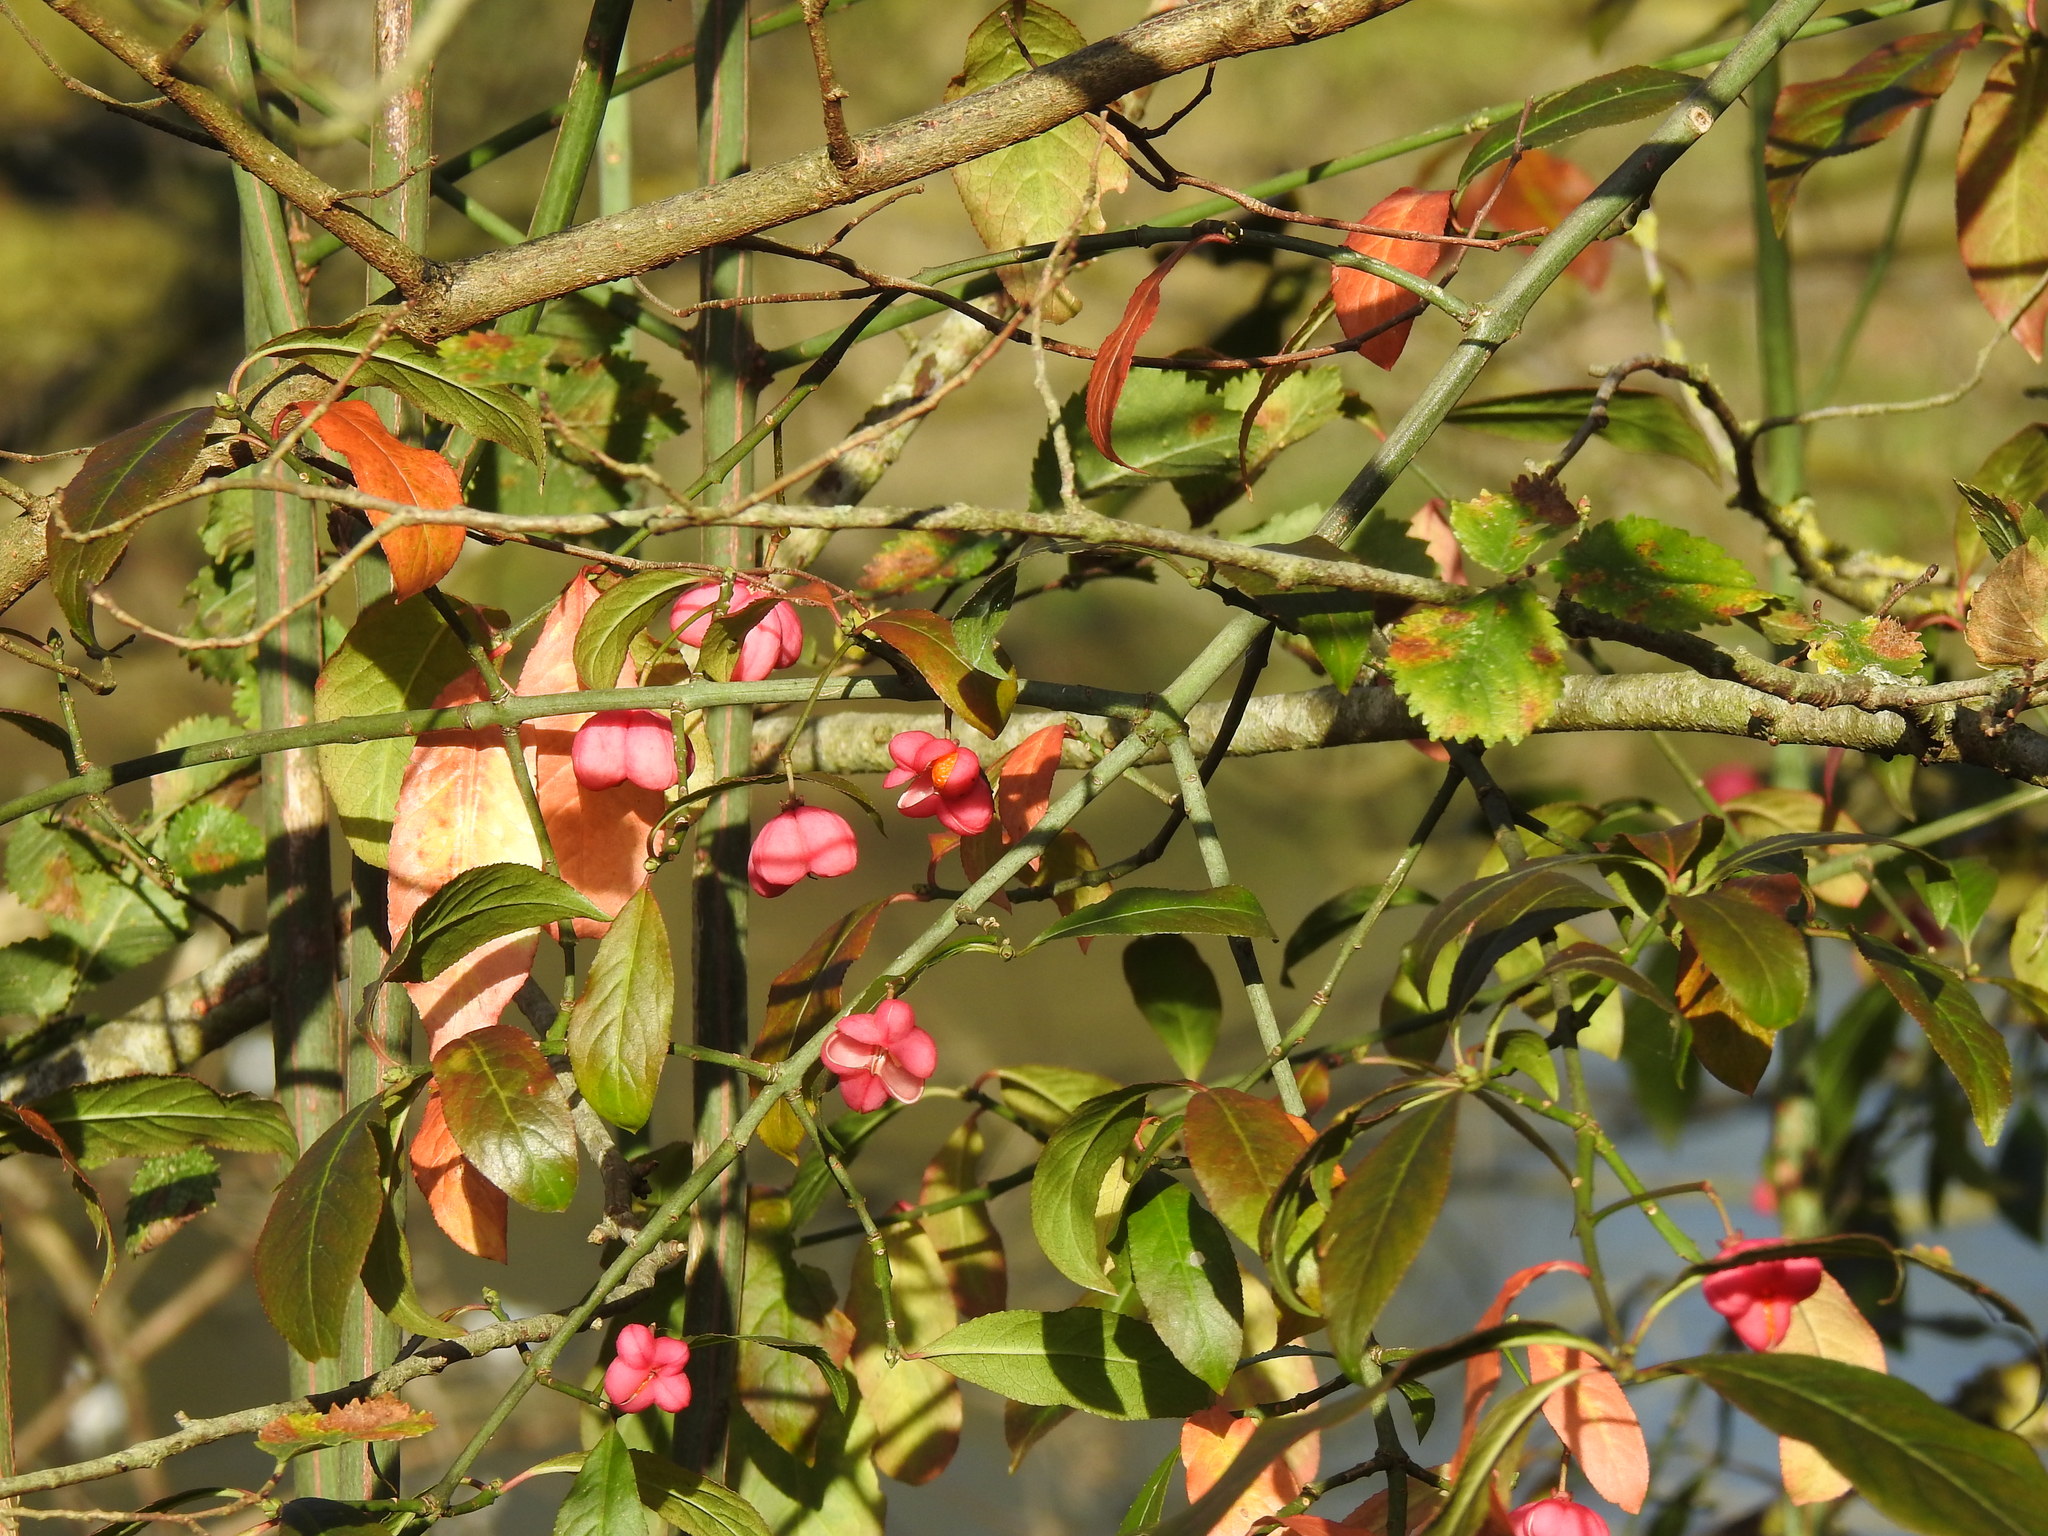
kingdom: Plantae
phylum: Tracheophyta
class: Magnoliopsida
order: Celastrales
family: Celastraceae
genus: Euonymus
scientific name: Euonymus europaeus
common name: Spindle
